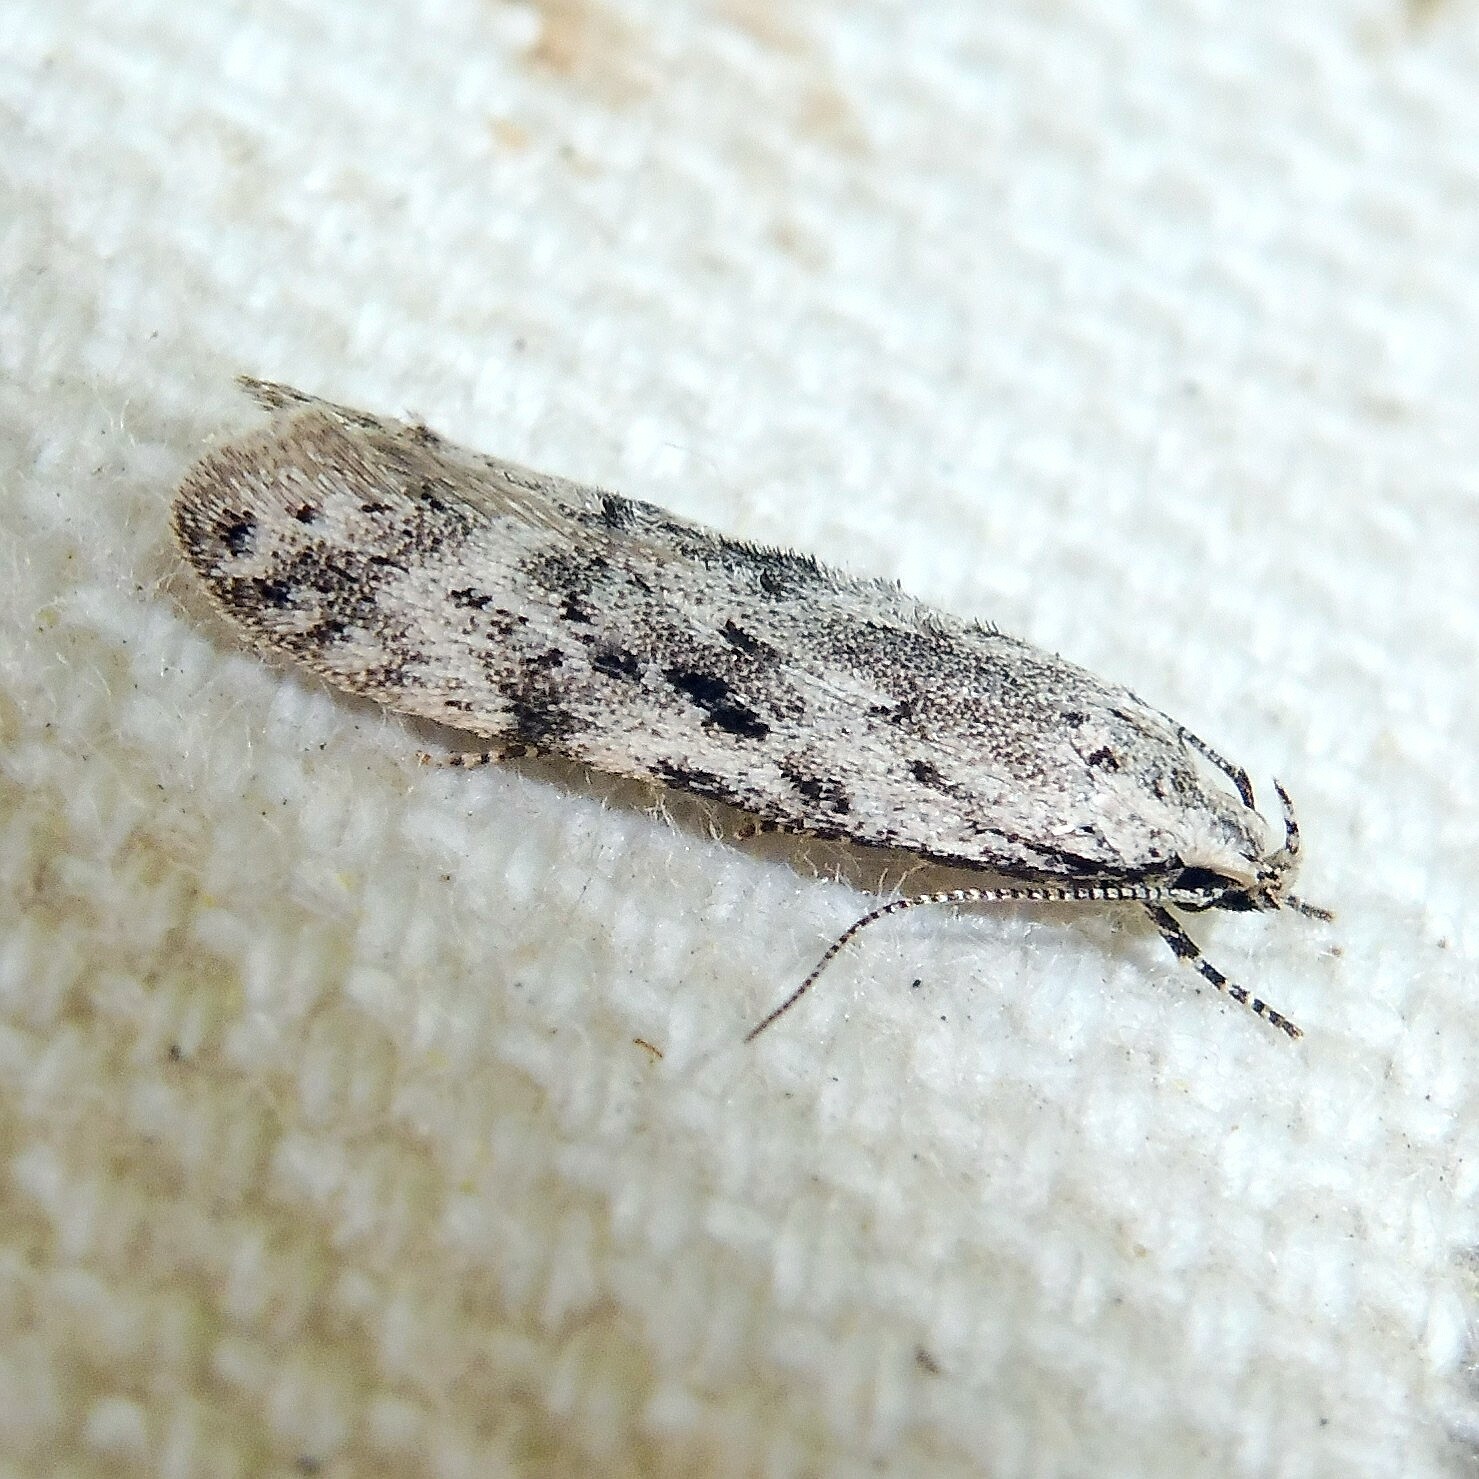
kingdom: Animalia
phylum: Arthropoda
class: Insecta
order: Lepidoptera
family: Gelechiidae
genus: Carpatolechia
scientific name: Carpatolechia proximella
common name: Black-speckled groundling
